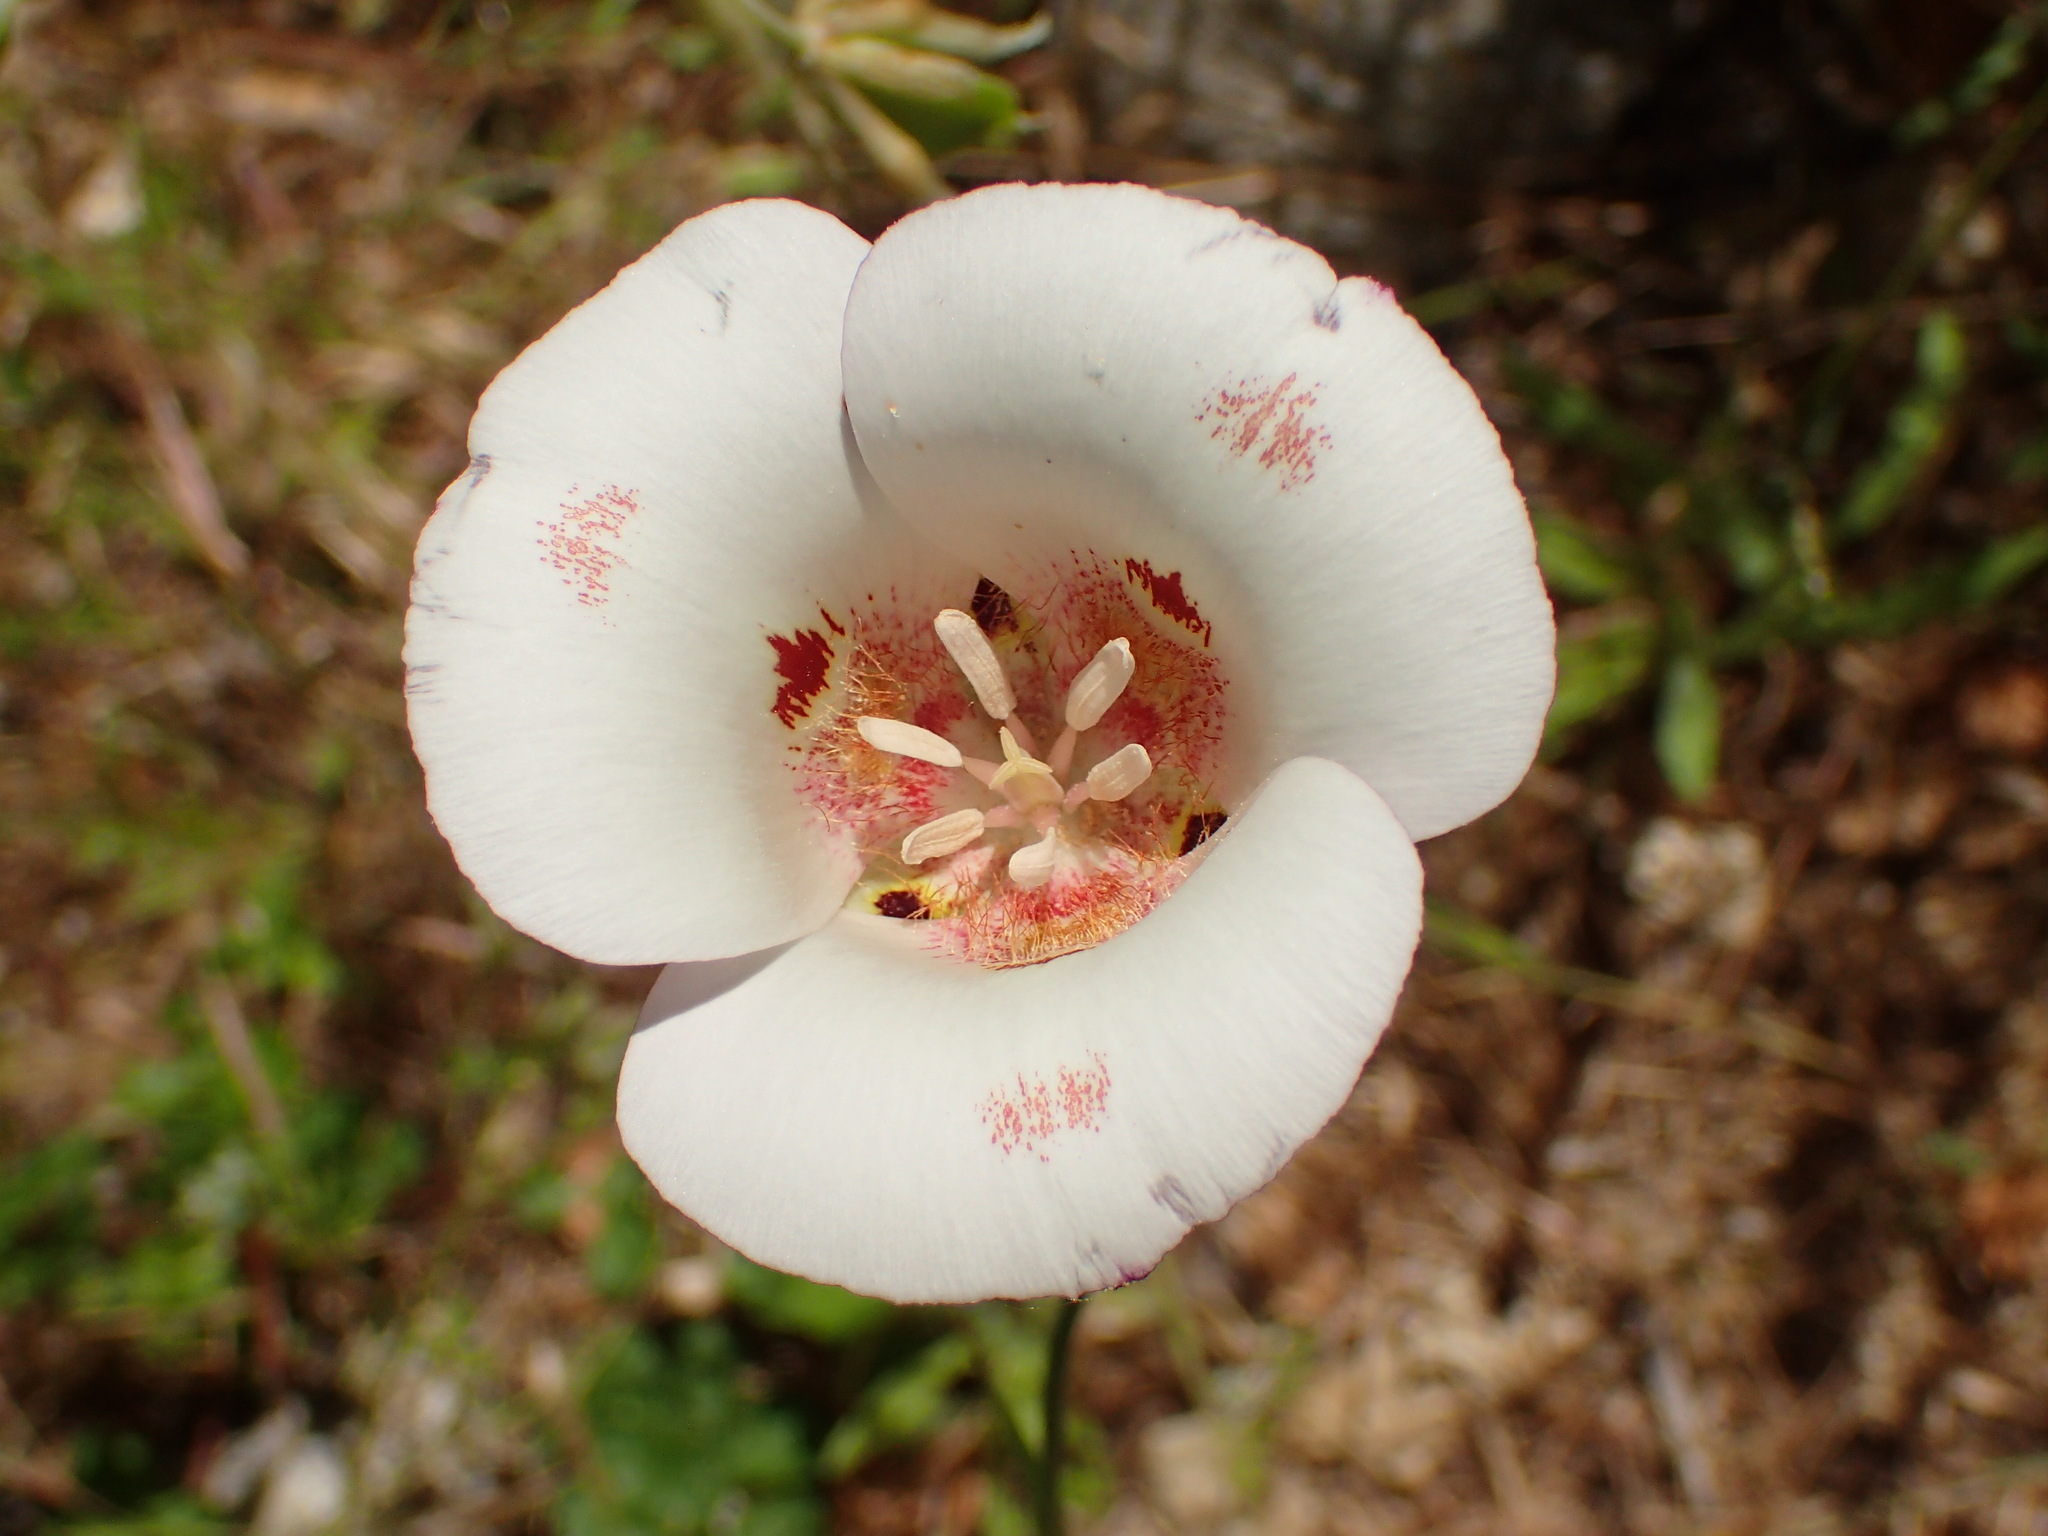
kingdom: Plantae
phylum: Tracheophyta
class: Liliopsida
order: Liliales
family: Liliaceae
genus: Calochortus
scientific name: Calochortus venustus
